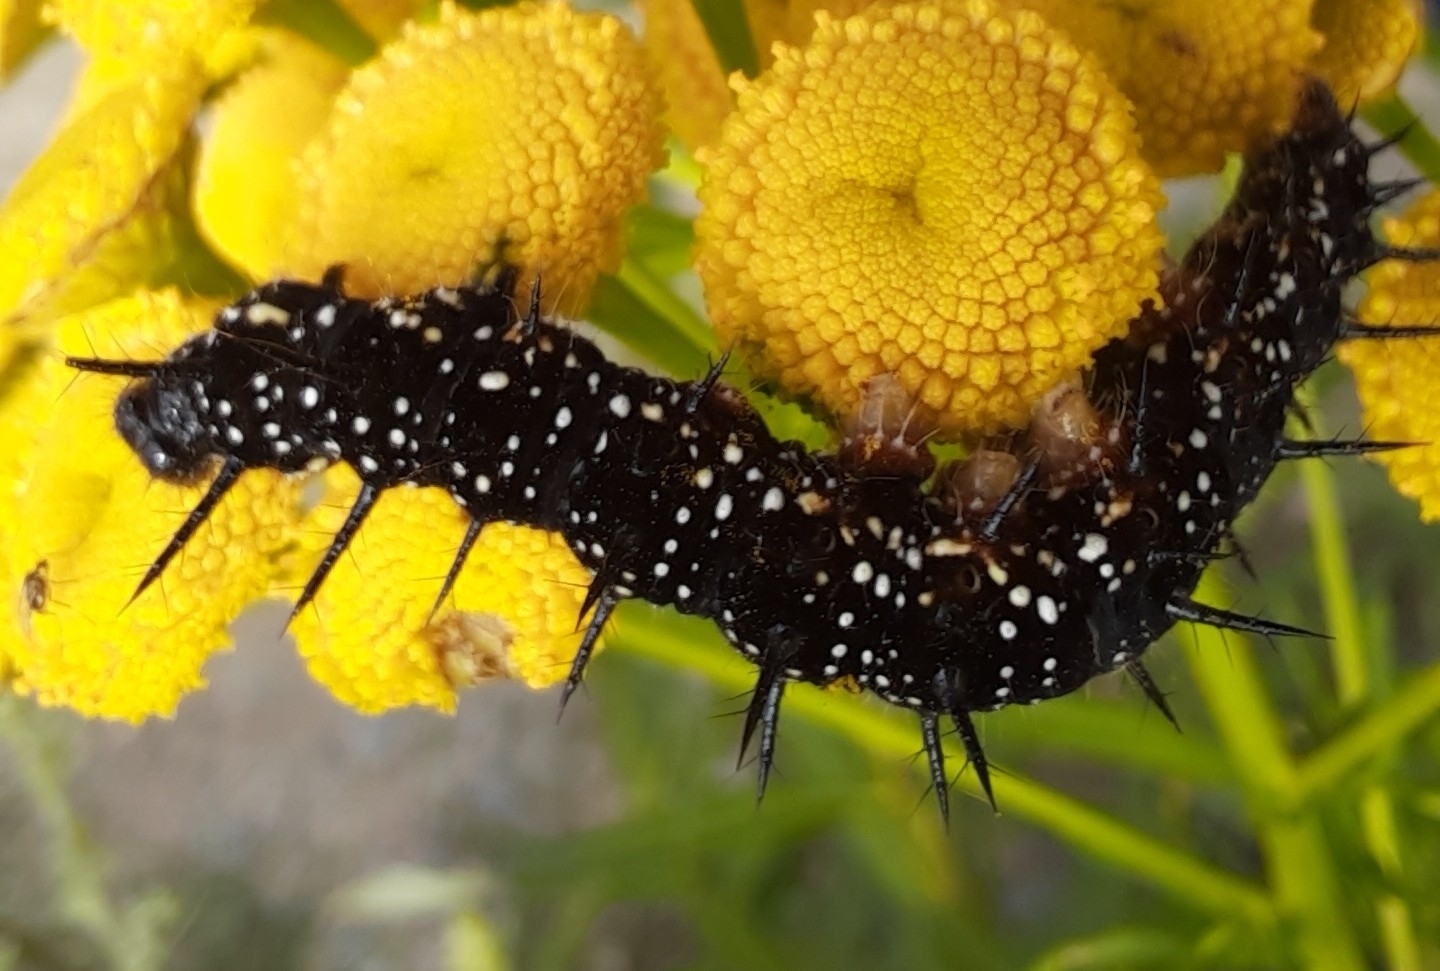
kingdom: Animalia
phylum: Arthropoda
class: Insecta
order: Lepidoptera
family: Nymphalidae
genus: Aglais
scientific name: Aglais io
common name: Peacock
